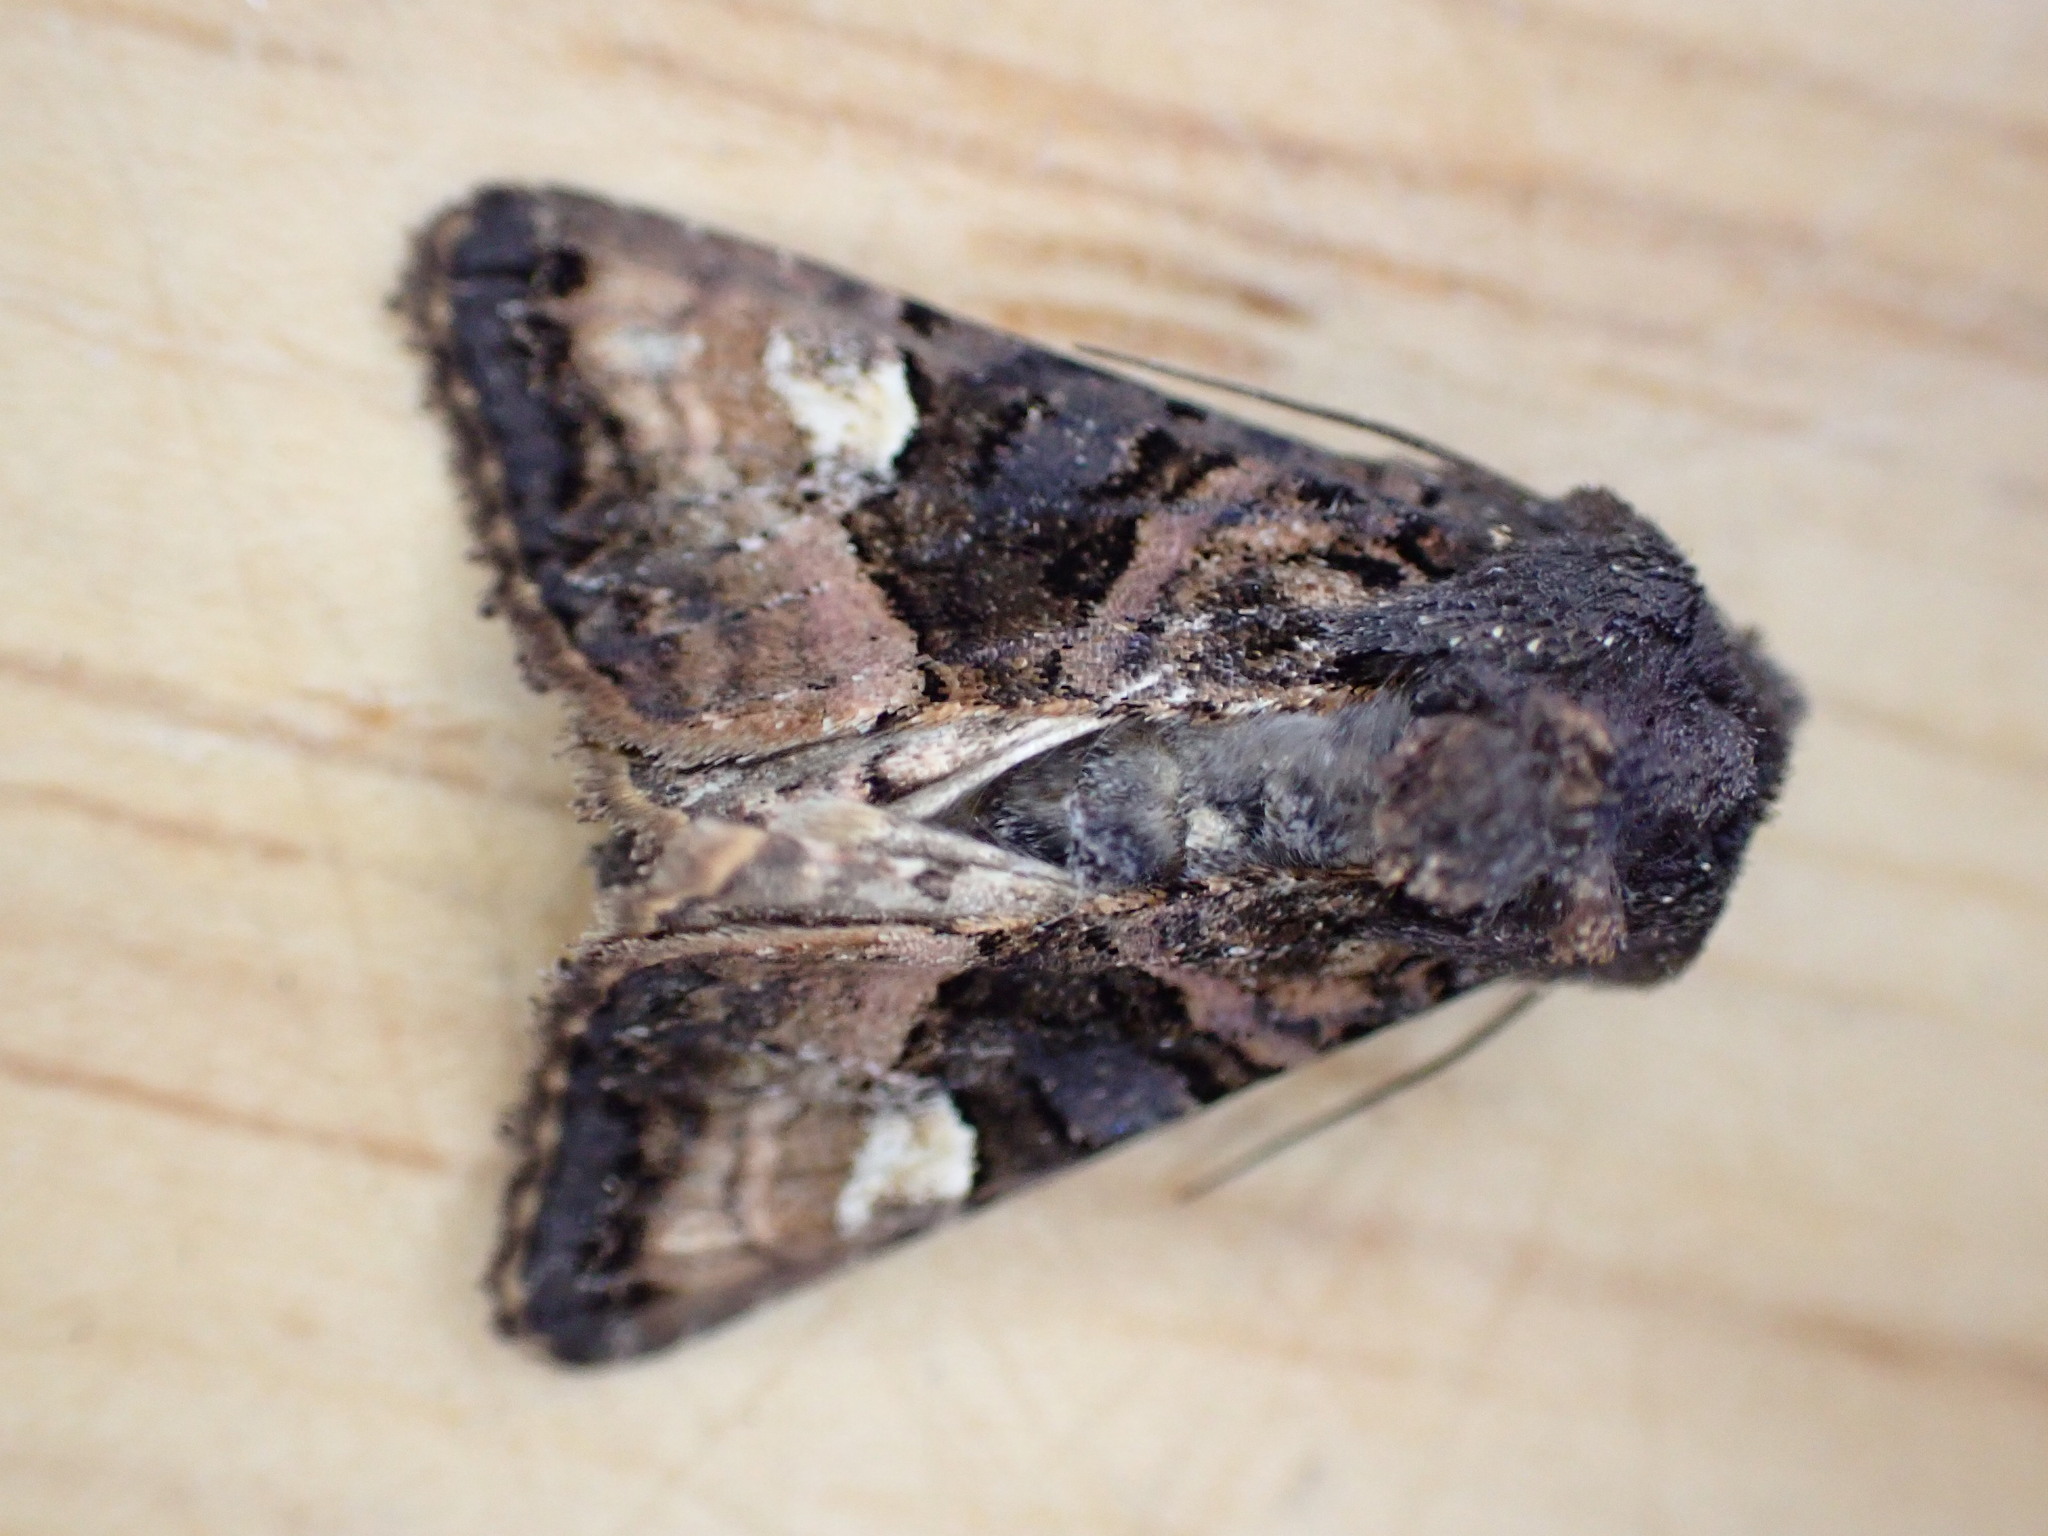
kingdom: Animalia
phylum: Arthropoda
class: Insecta
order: Lepidoptera
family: Noctuidae
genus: Euplexia
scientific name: Euplexia lucipara
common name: Small angle shades
